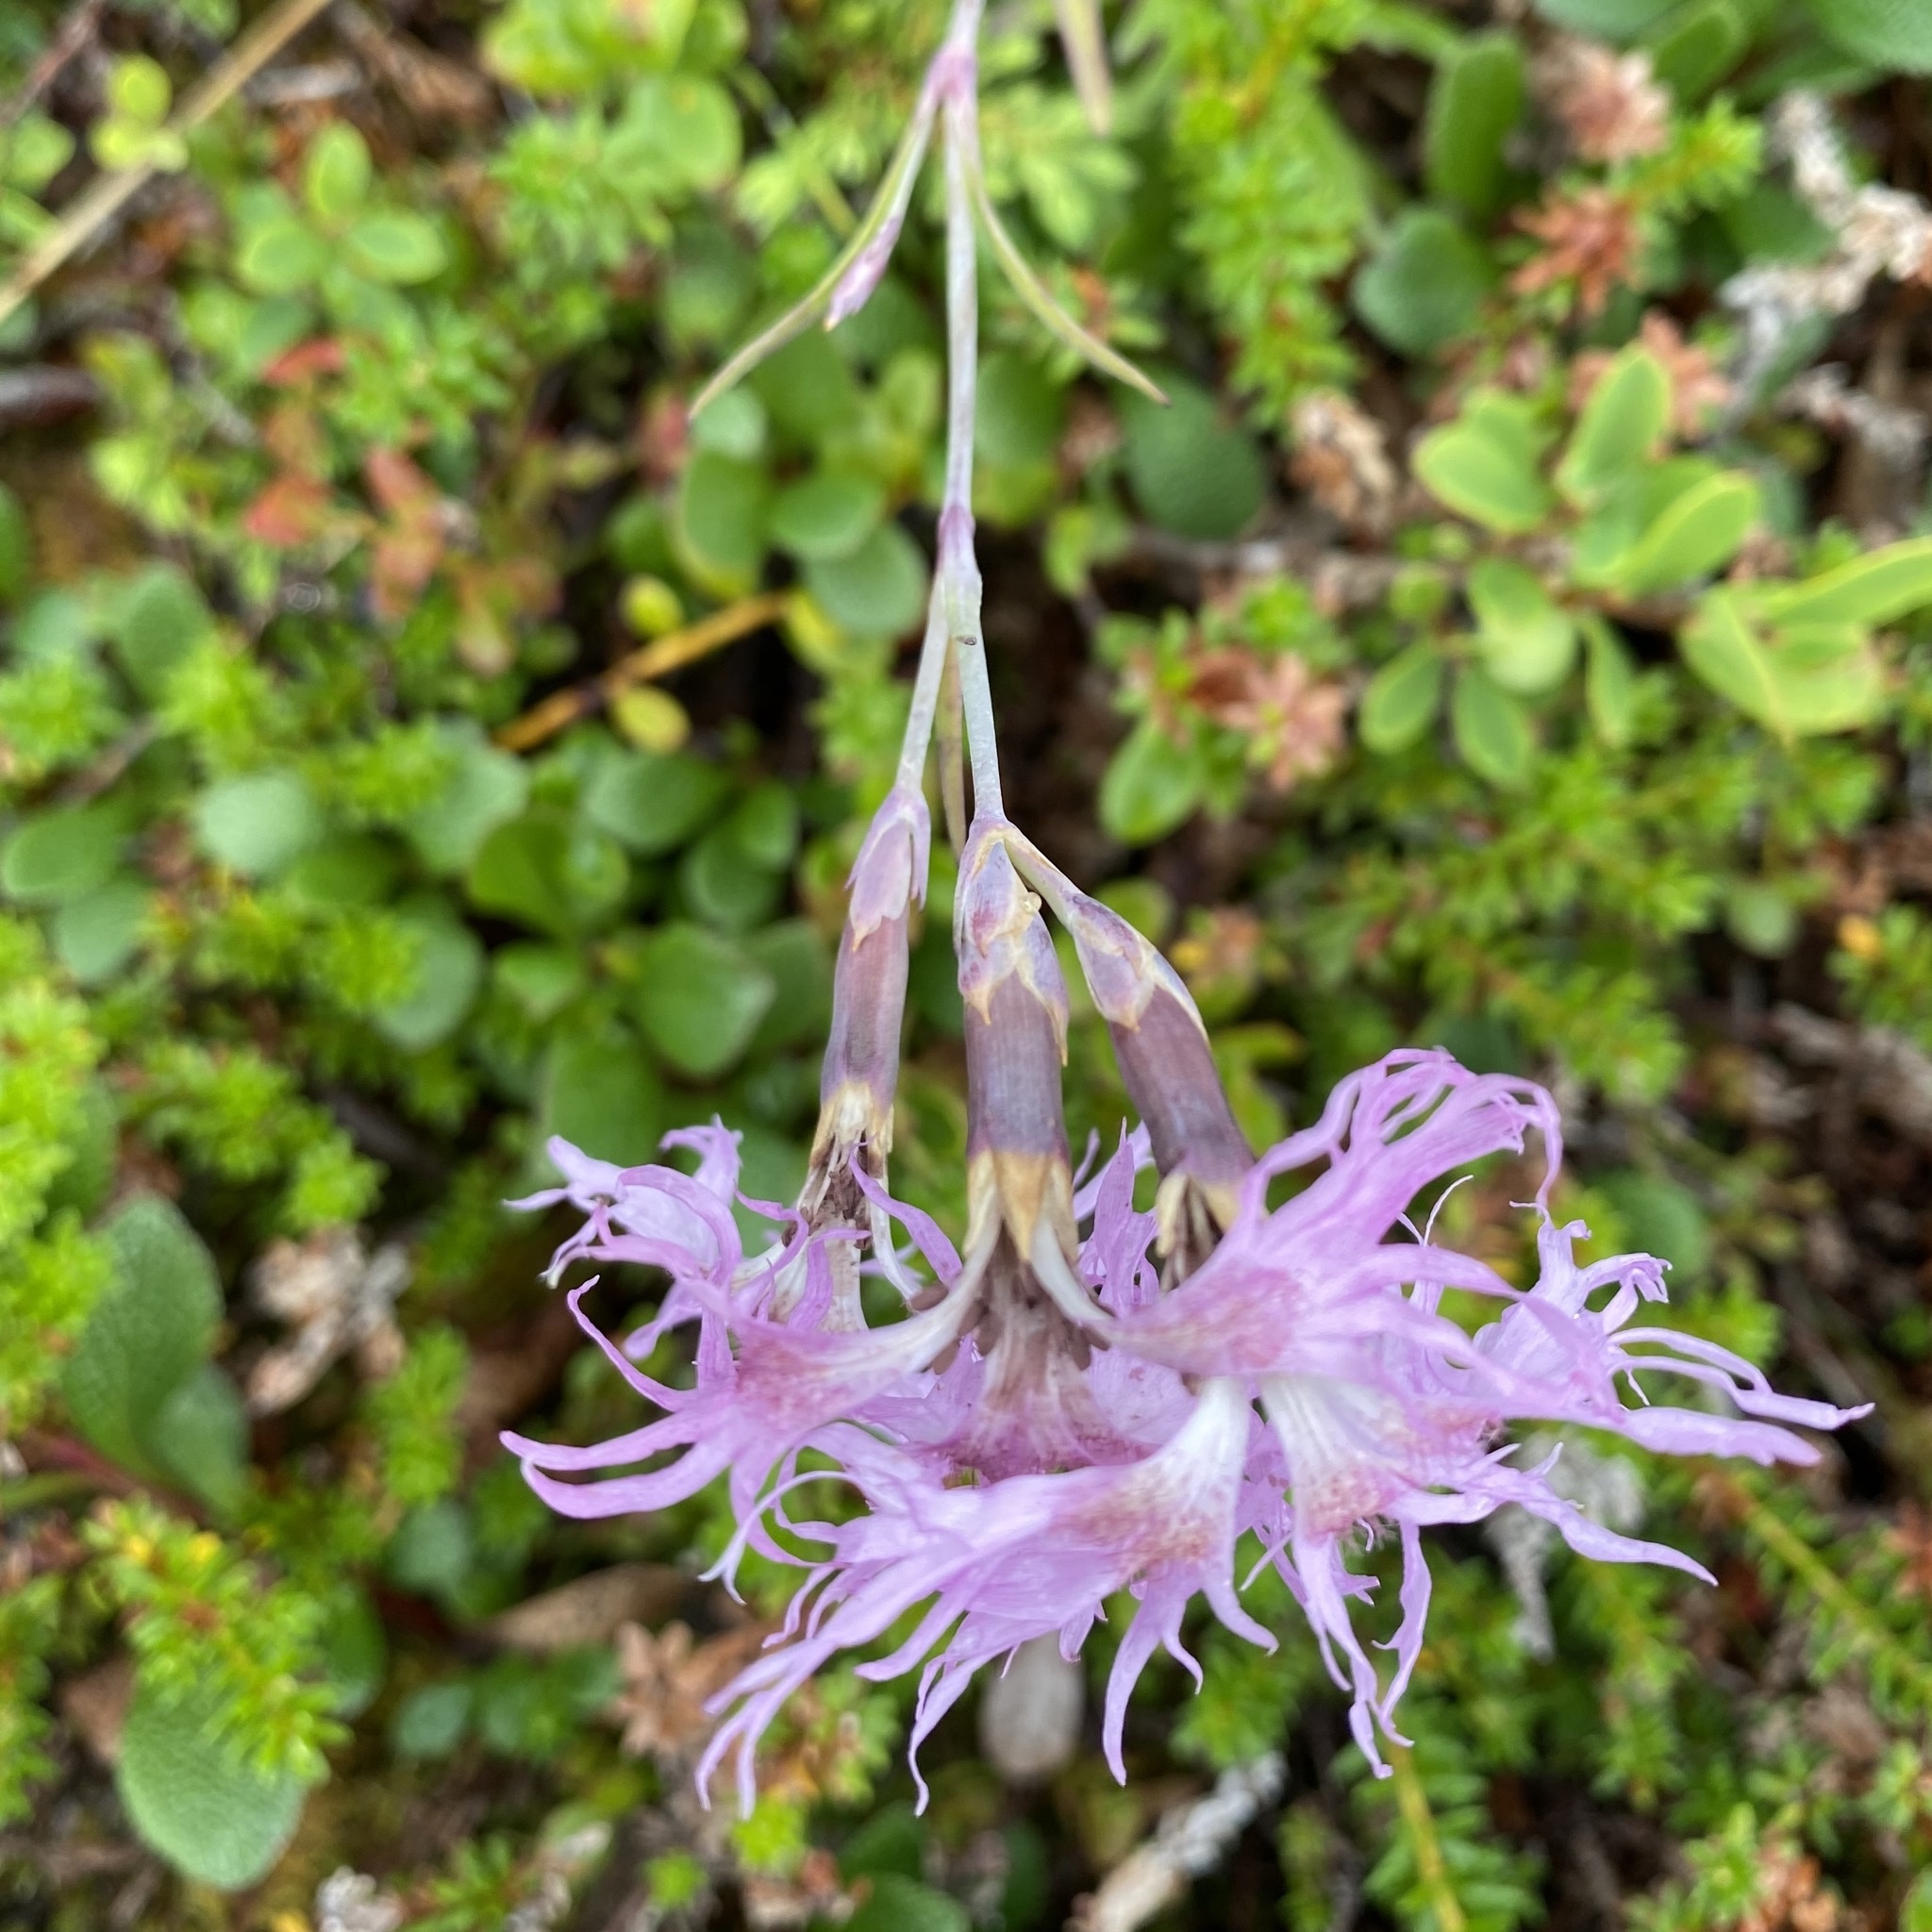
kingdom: Plantae
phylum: Tracheophyta
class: Magnoliopsida
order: Caryophyllales
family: Caryophyllaceae
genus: Dianthus
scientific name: Dianthus superbus
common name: Fringed pink
